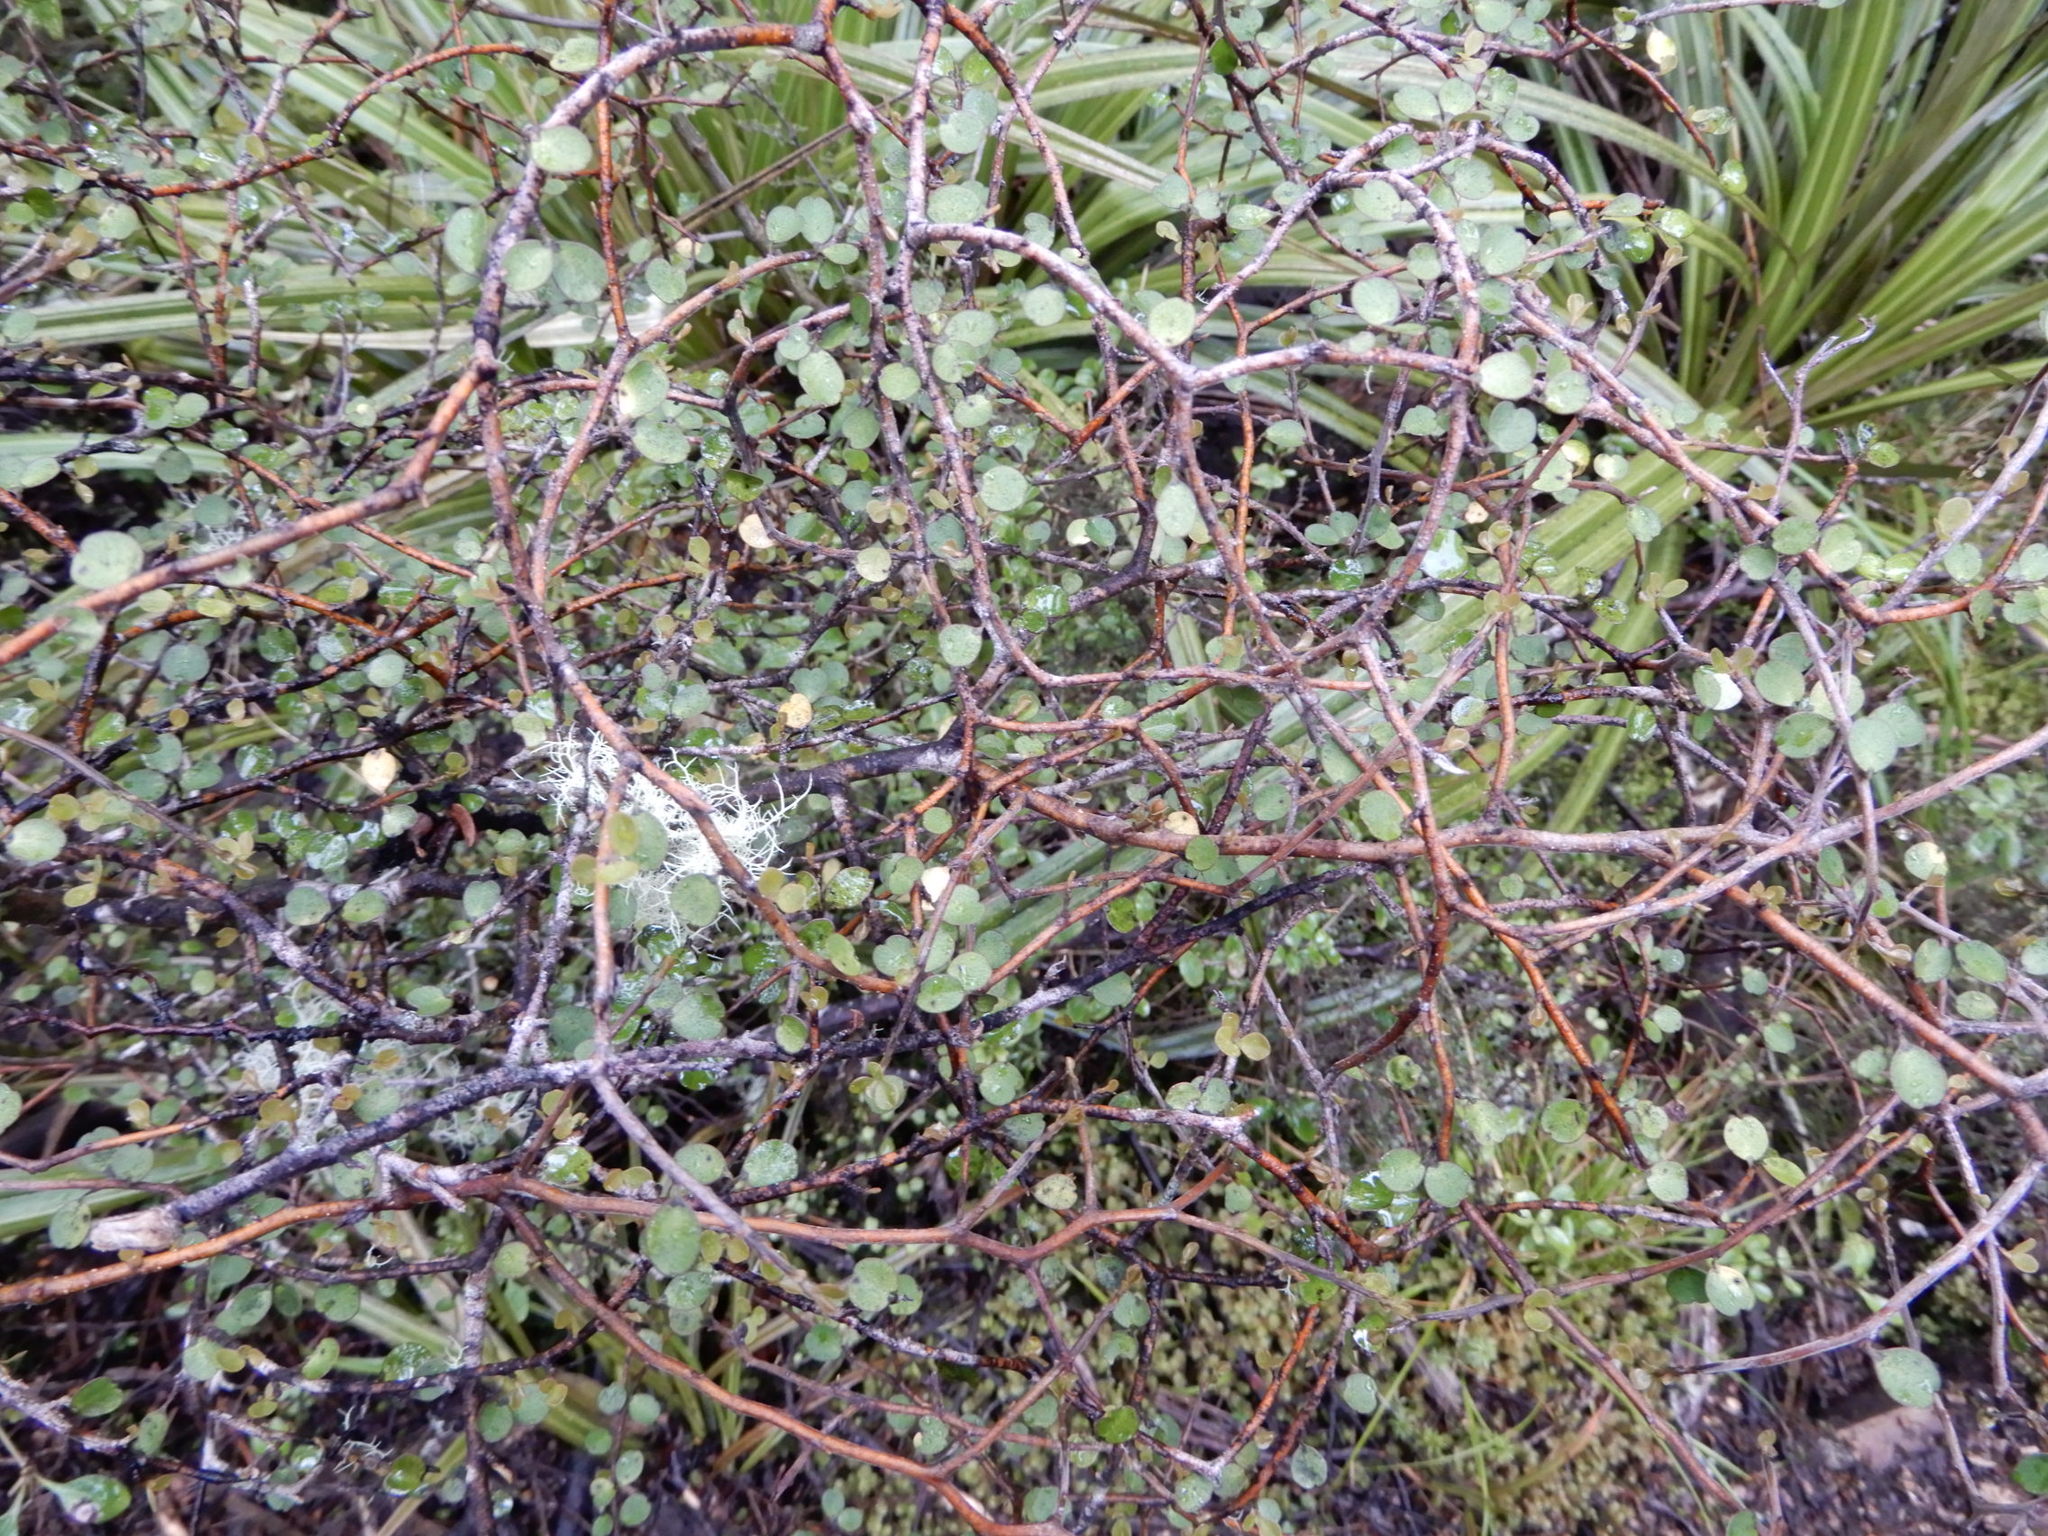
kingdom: Plantae
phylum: Tracheophyta
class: Magnoliopsida
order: Ericales
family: Primulaceae
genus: Myrsine
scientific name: Myrsine divaricata
